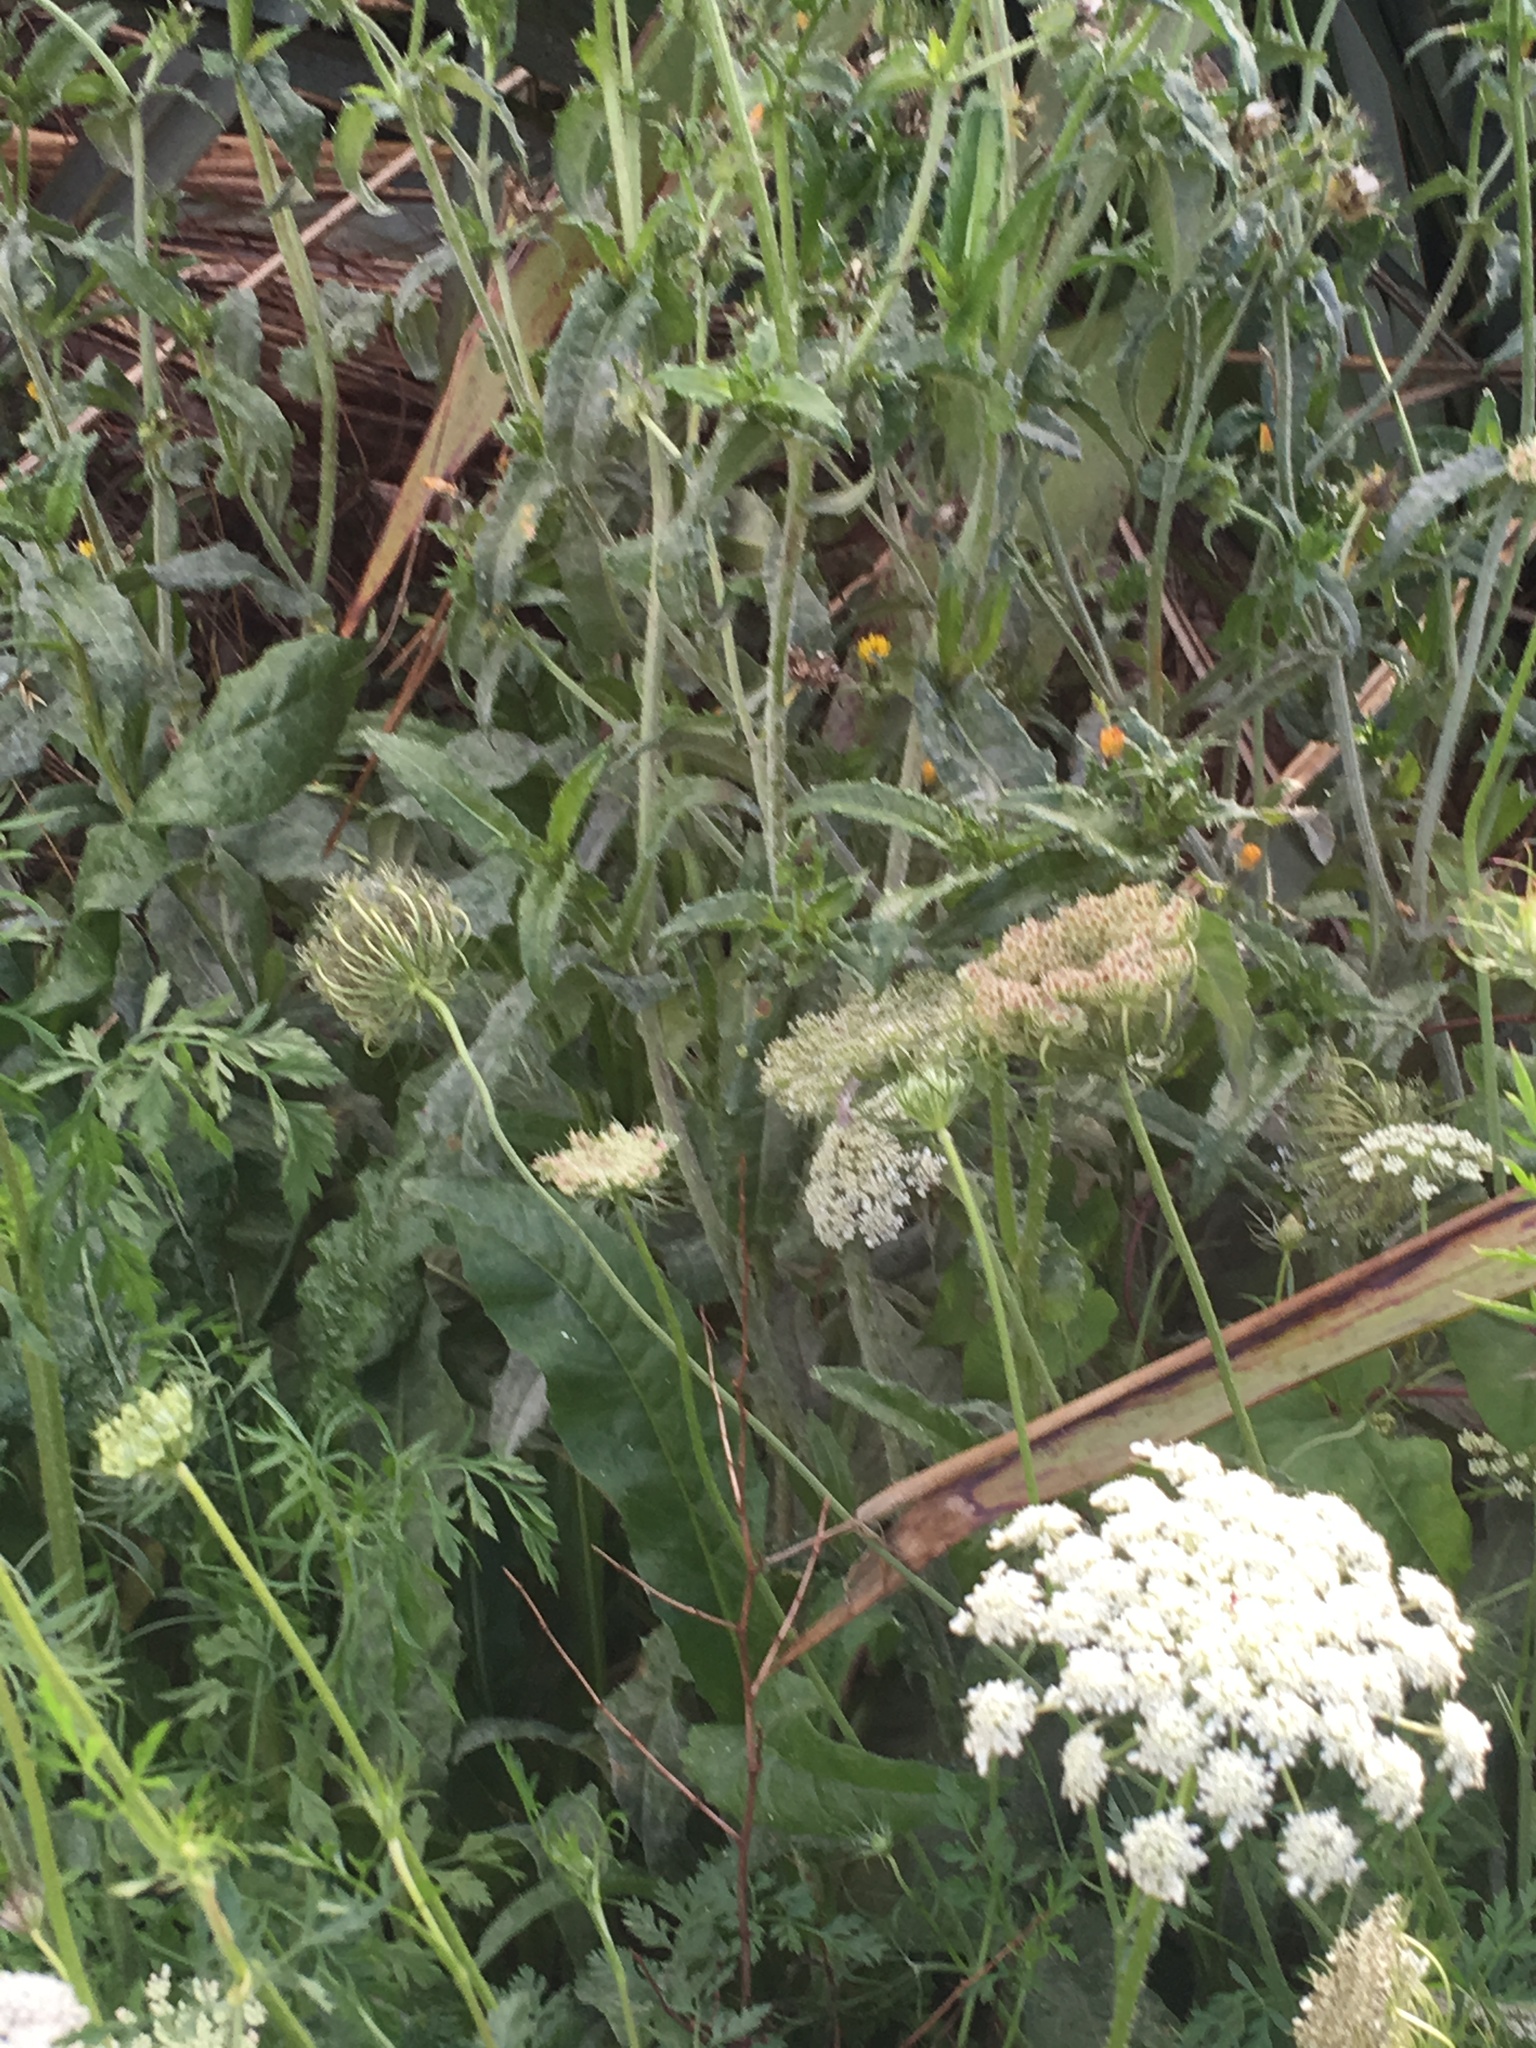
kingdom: Plantae
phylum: Tracheophyta
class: Magnoliopsida
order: Apiales
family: Apiaceae
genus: Daucus
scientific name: Daucus carota
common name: Wild carrot
